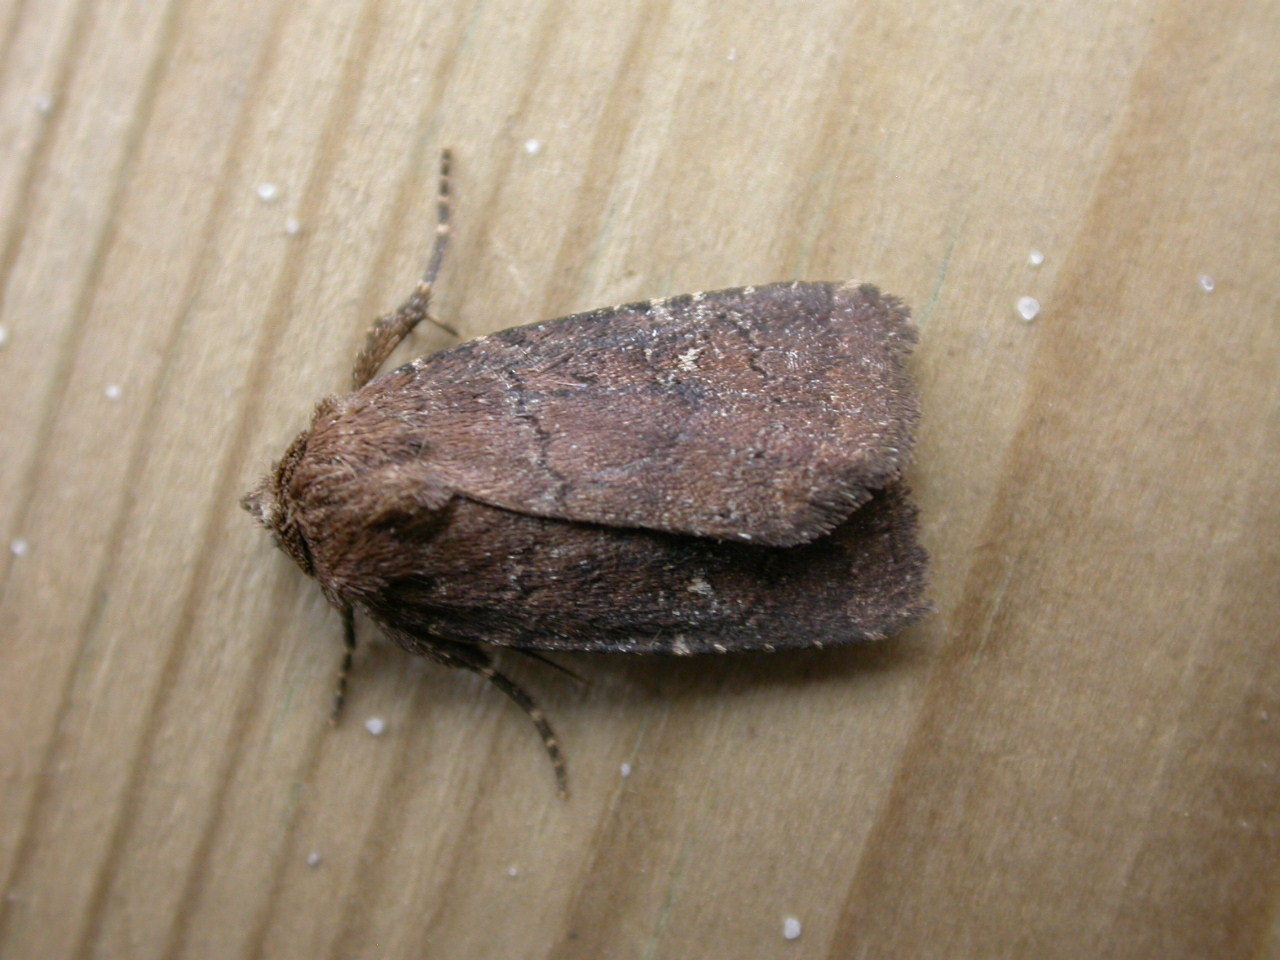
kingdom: Animalia
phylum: Arthropoda
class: Insecta
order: Lepidoptera
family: Noctuidae
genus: Charanyca
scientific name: Charanyca ferruginea
